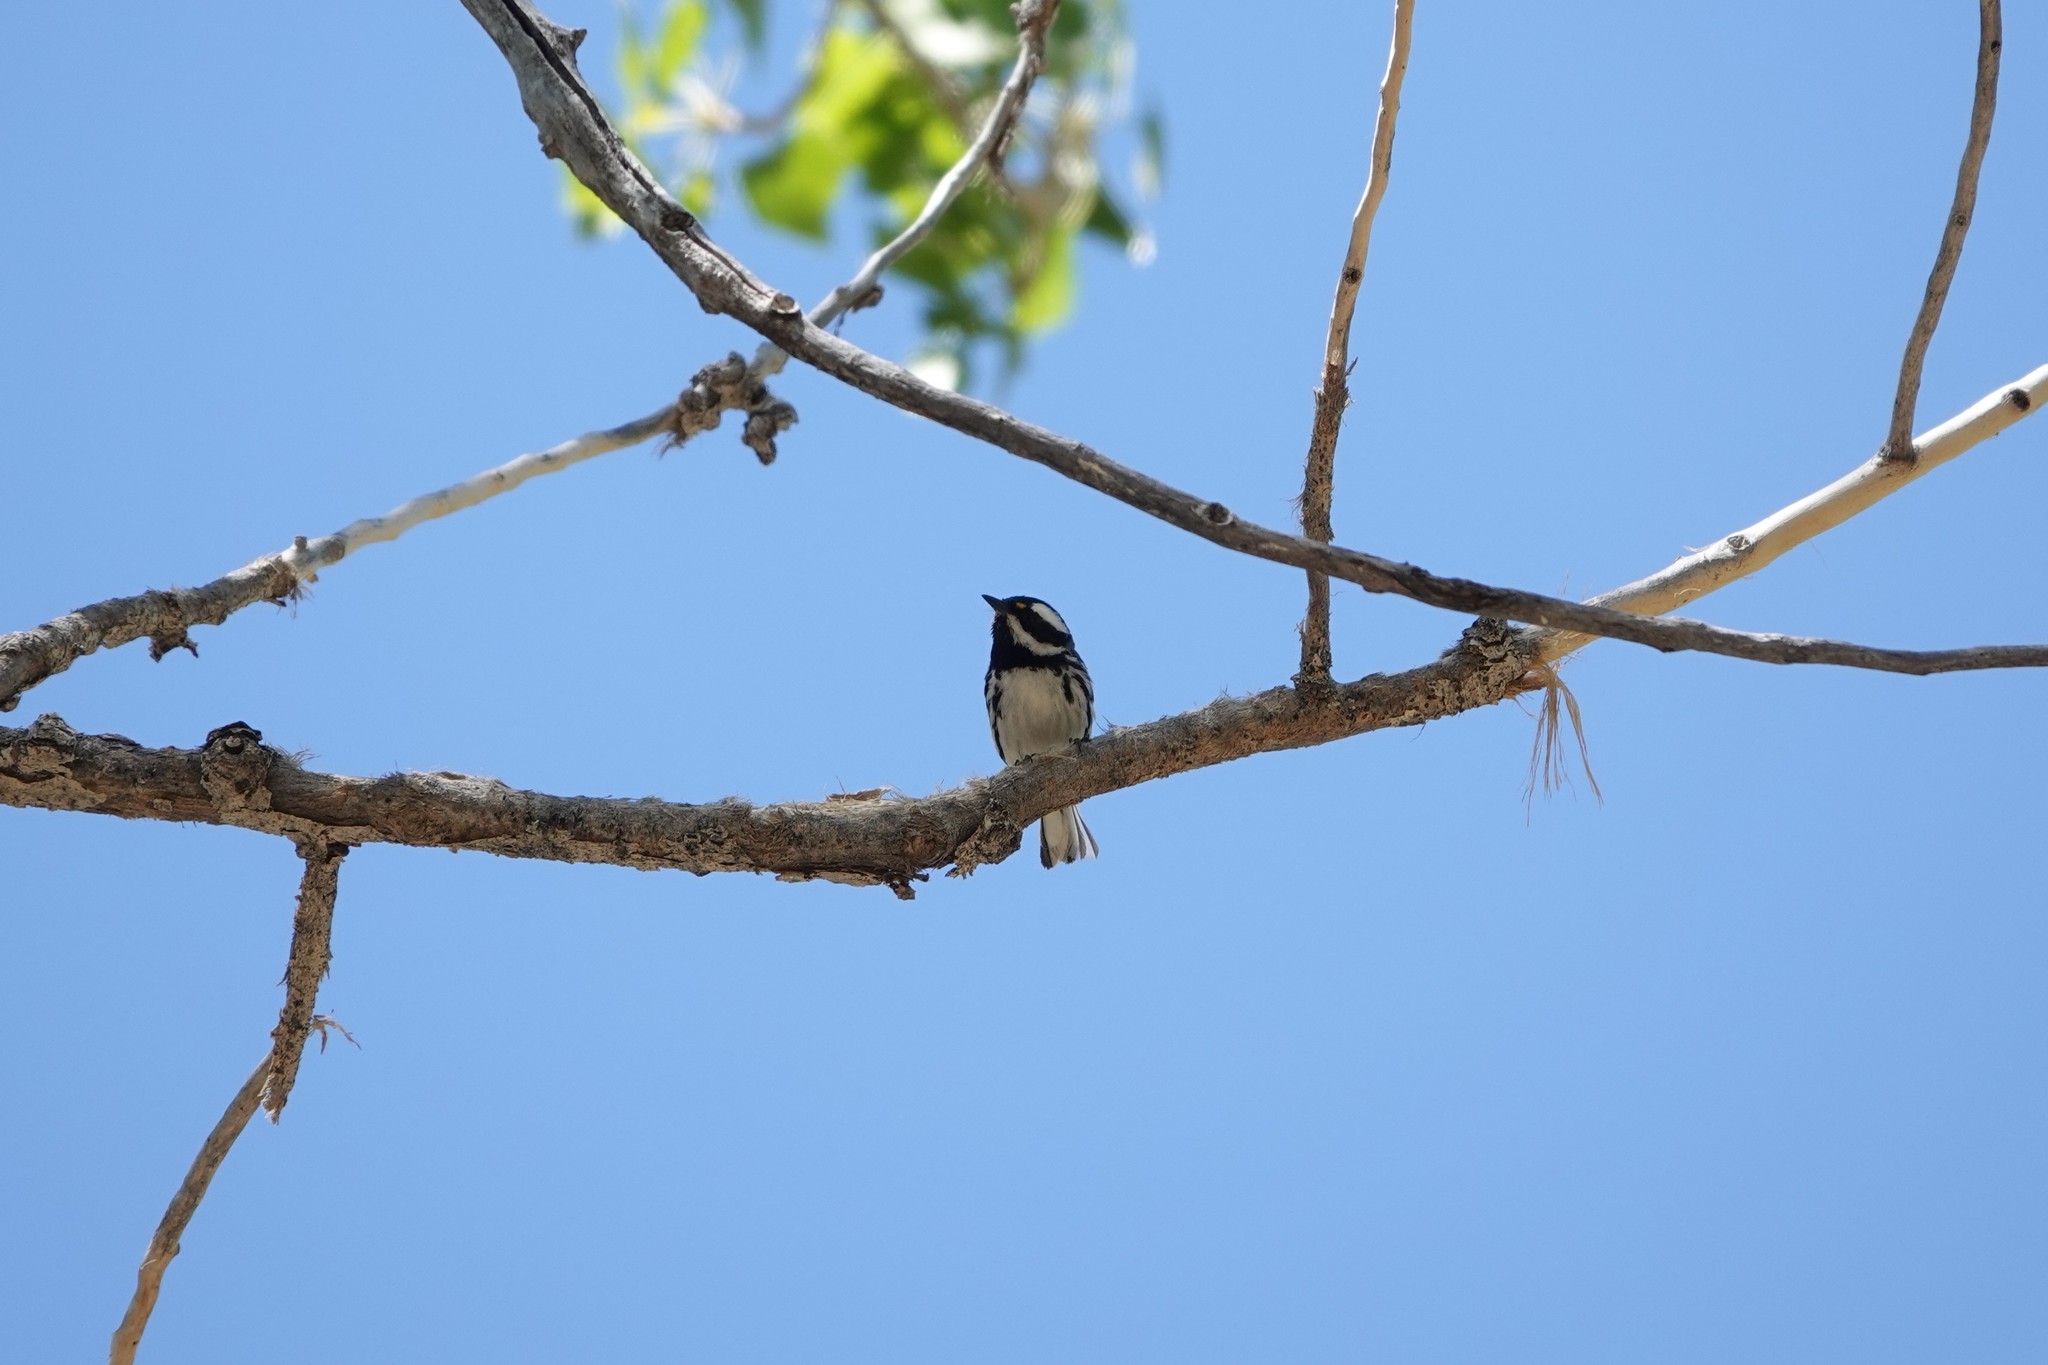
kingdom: Animalia
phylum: Chordata
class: Aves
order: Passeriformes
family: Parulidae
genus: Setophaga
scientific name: Setophaga nigrescens
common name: Black-throated gray warbler
